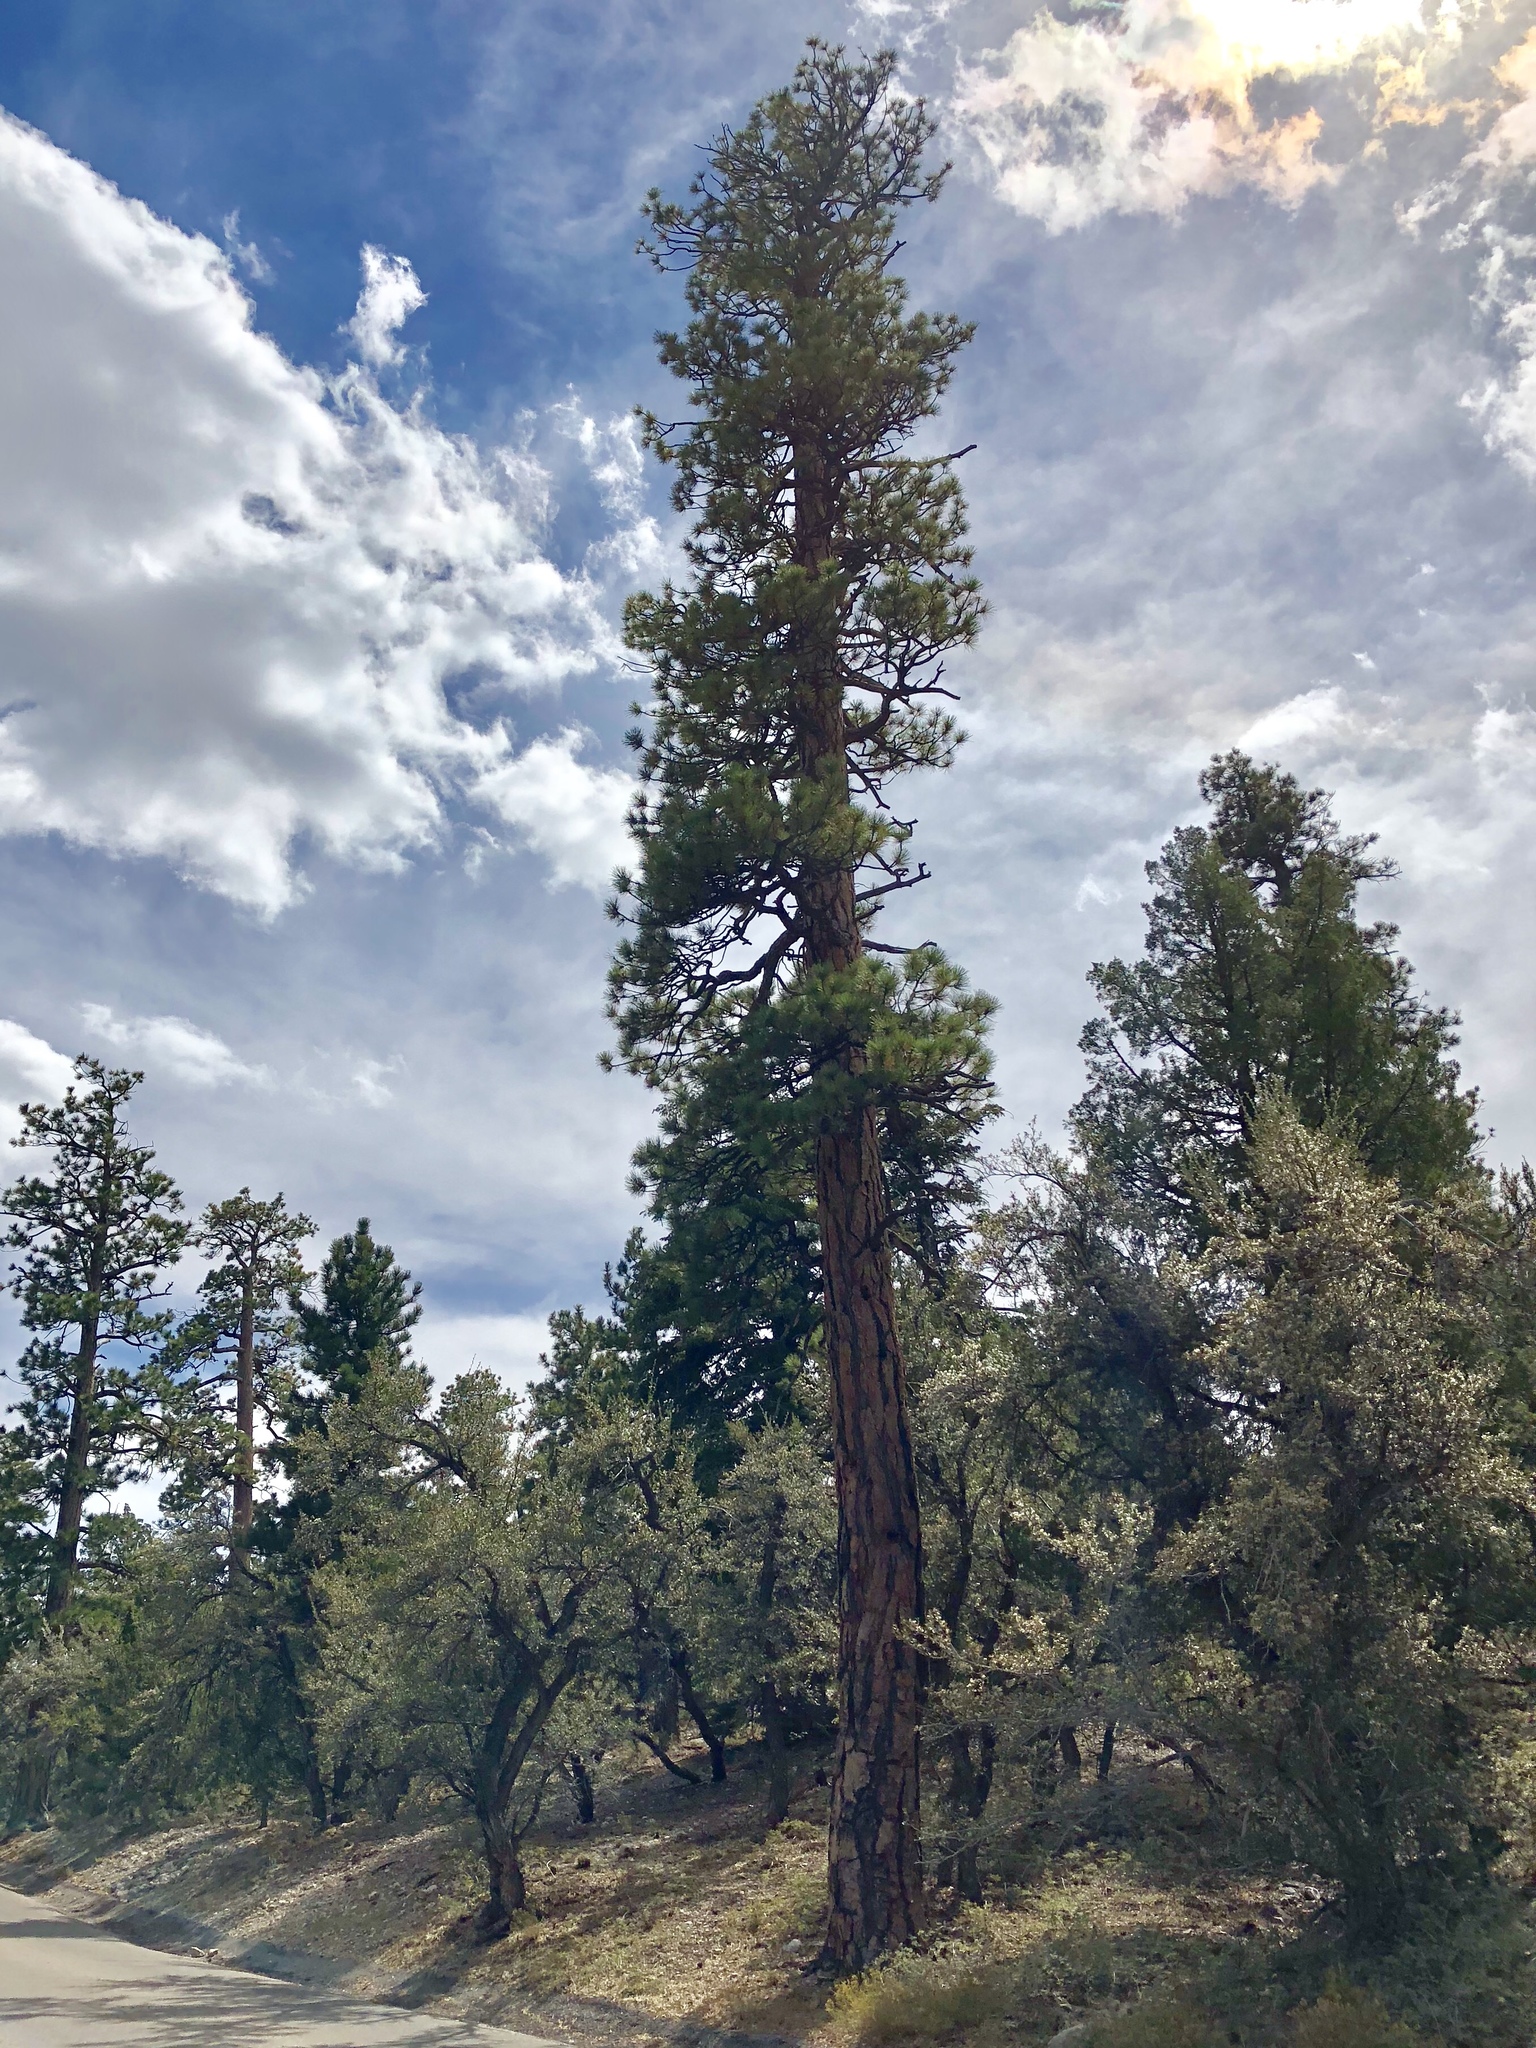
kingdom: Plantae
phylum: Tracheophyta
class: Pinopsida
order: Pinales
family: Pinaceae
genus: Pinus
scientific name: Pinus ponderosa
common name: Western yellow-pine
